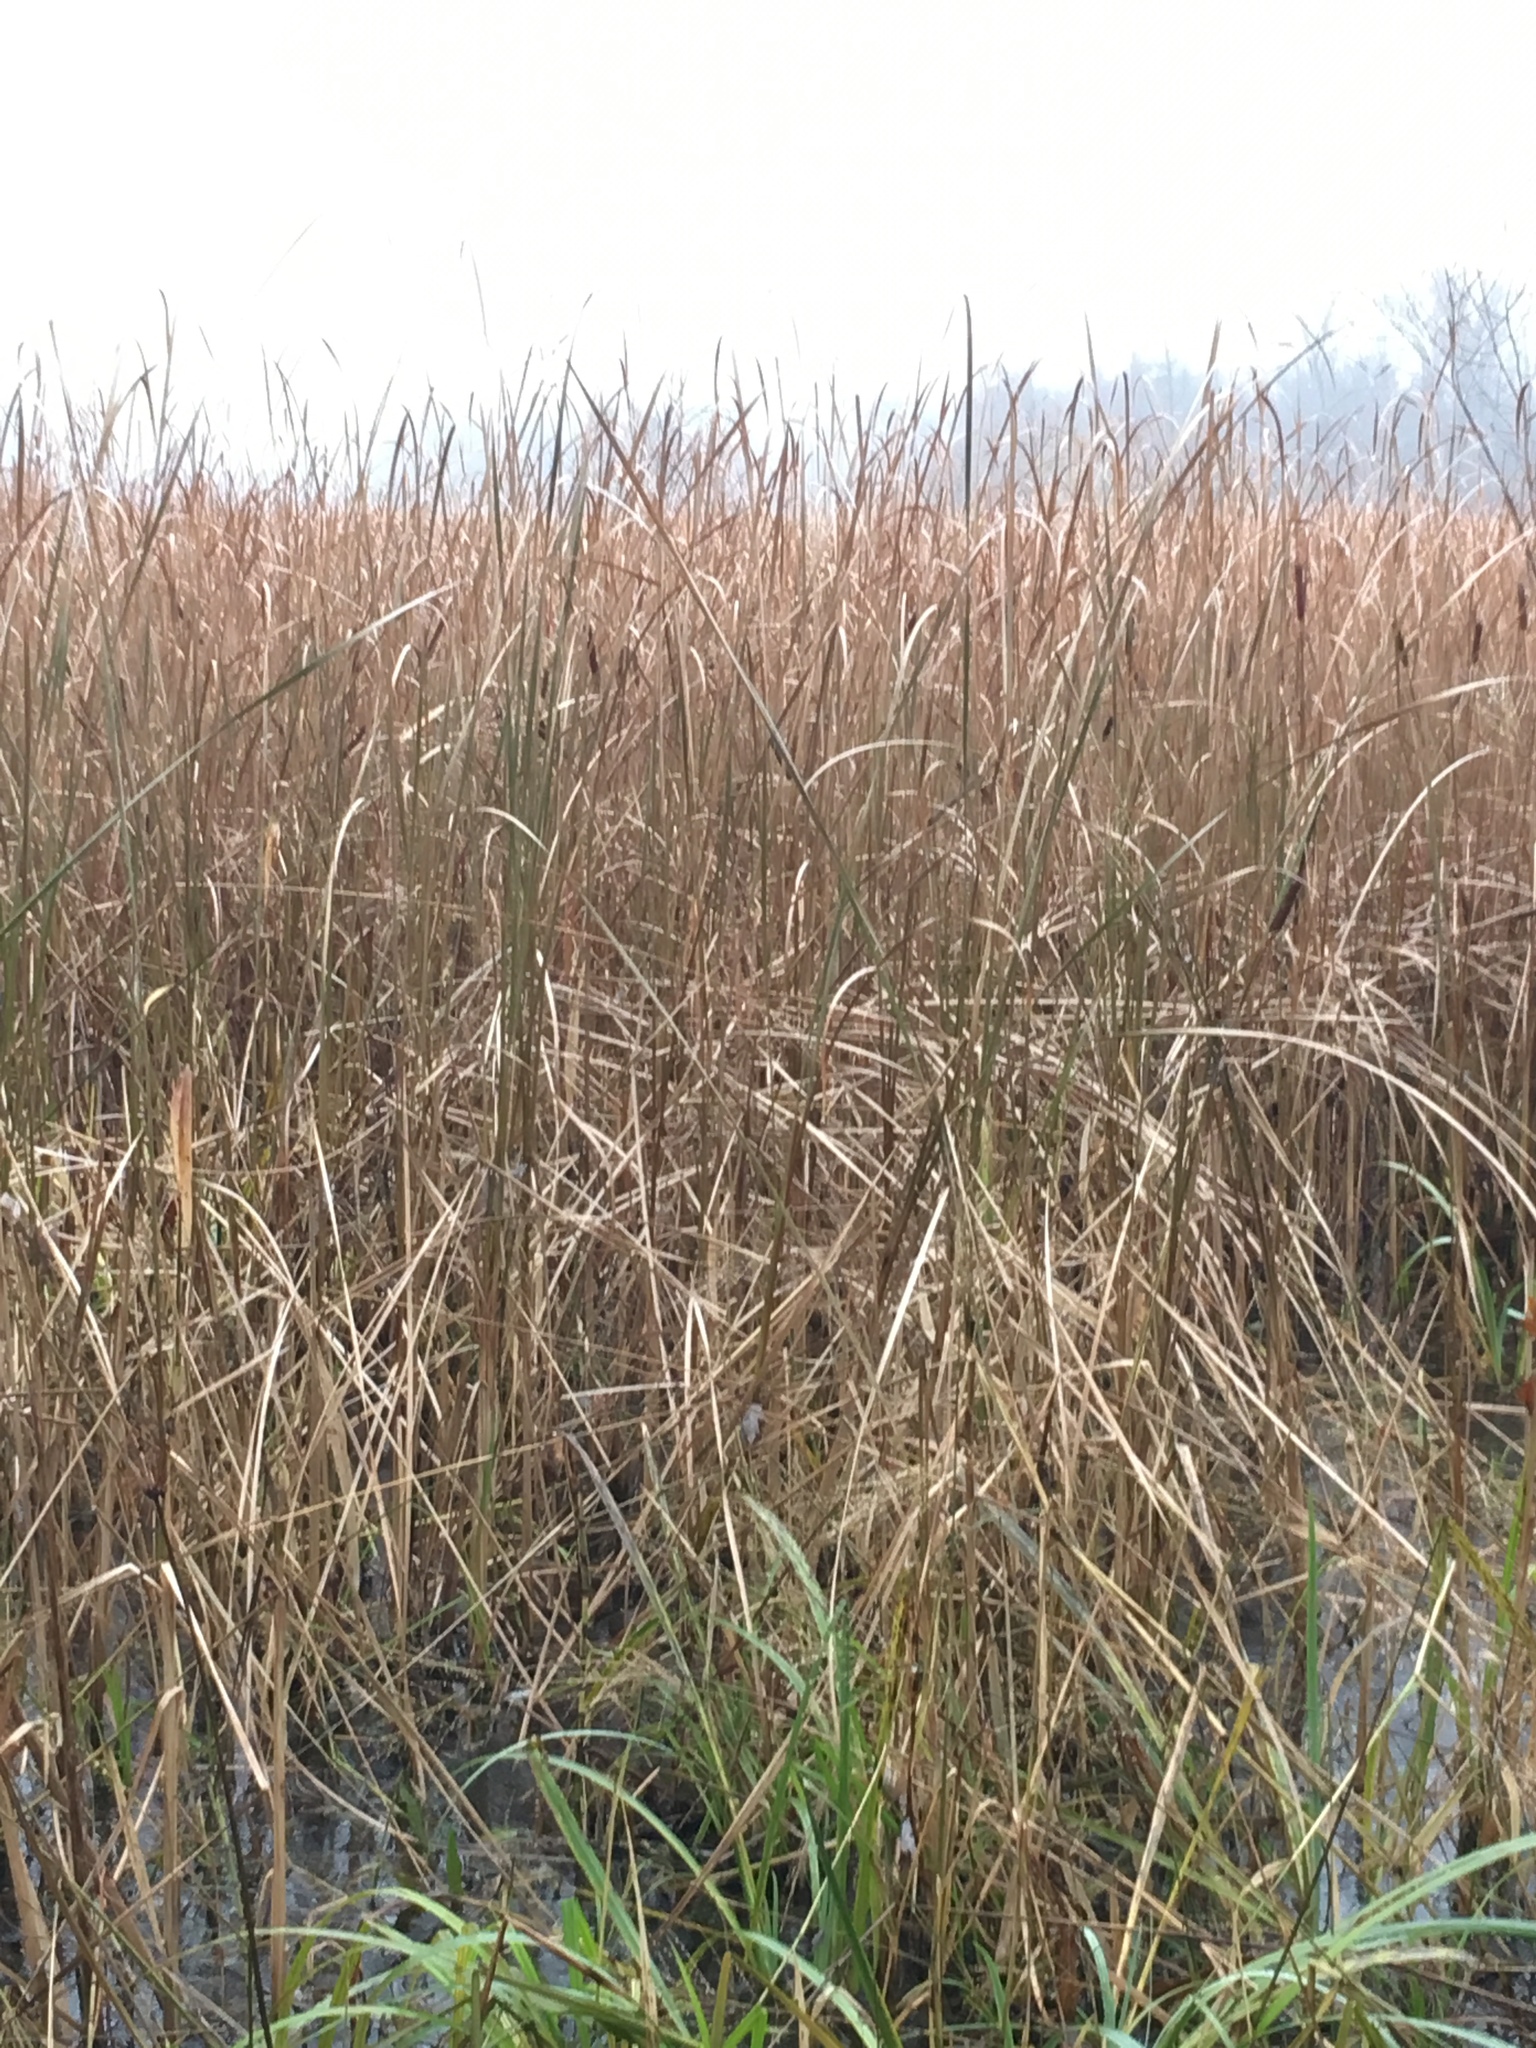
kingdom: Plantae
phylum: Tracheophyta
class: Liliopsida
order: Poales
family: Typhaceae
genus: Typha
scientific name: Typha angustifolia
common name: Lesser bulrush
